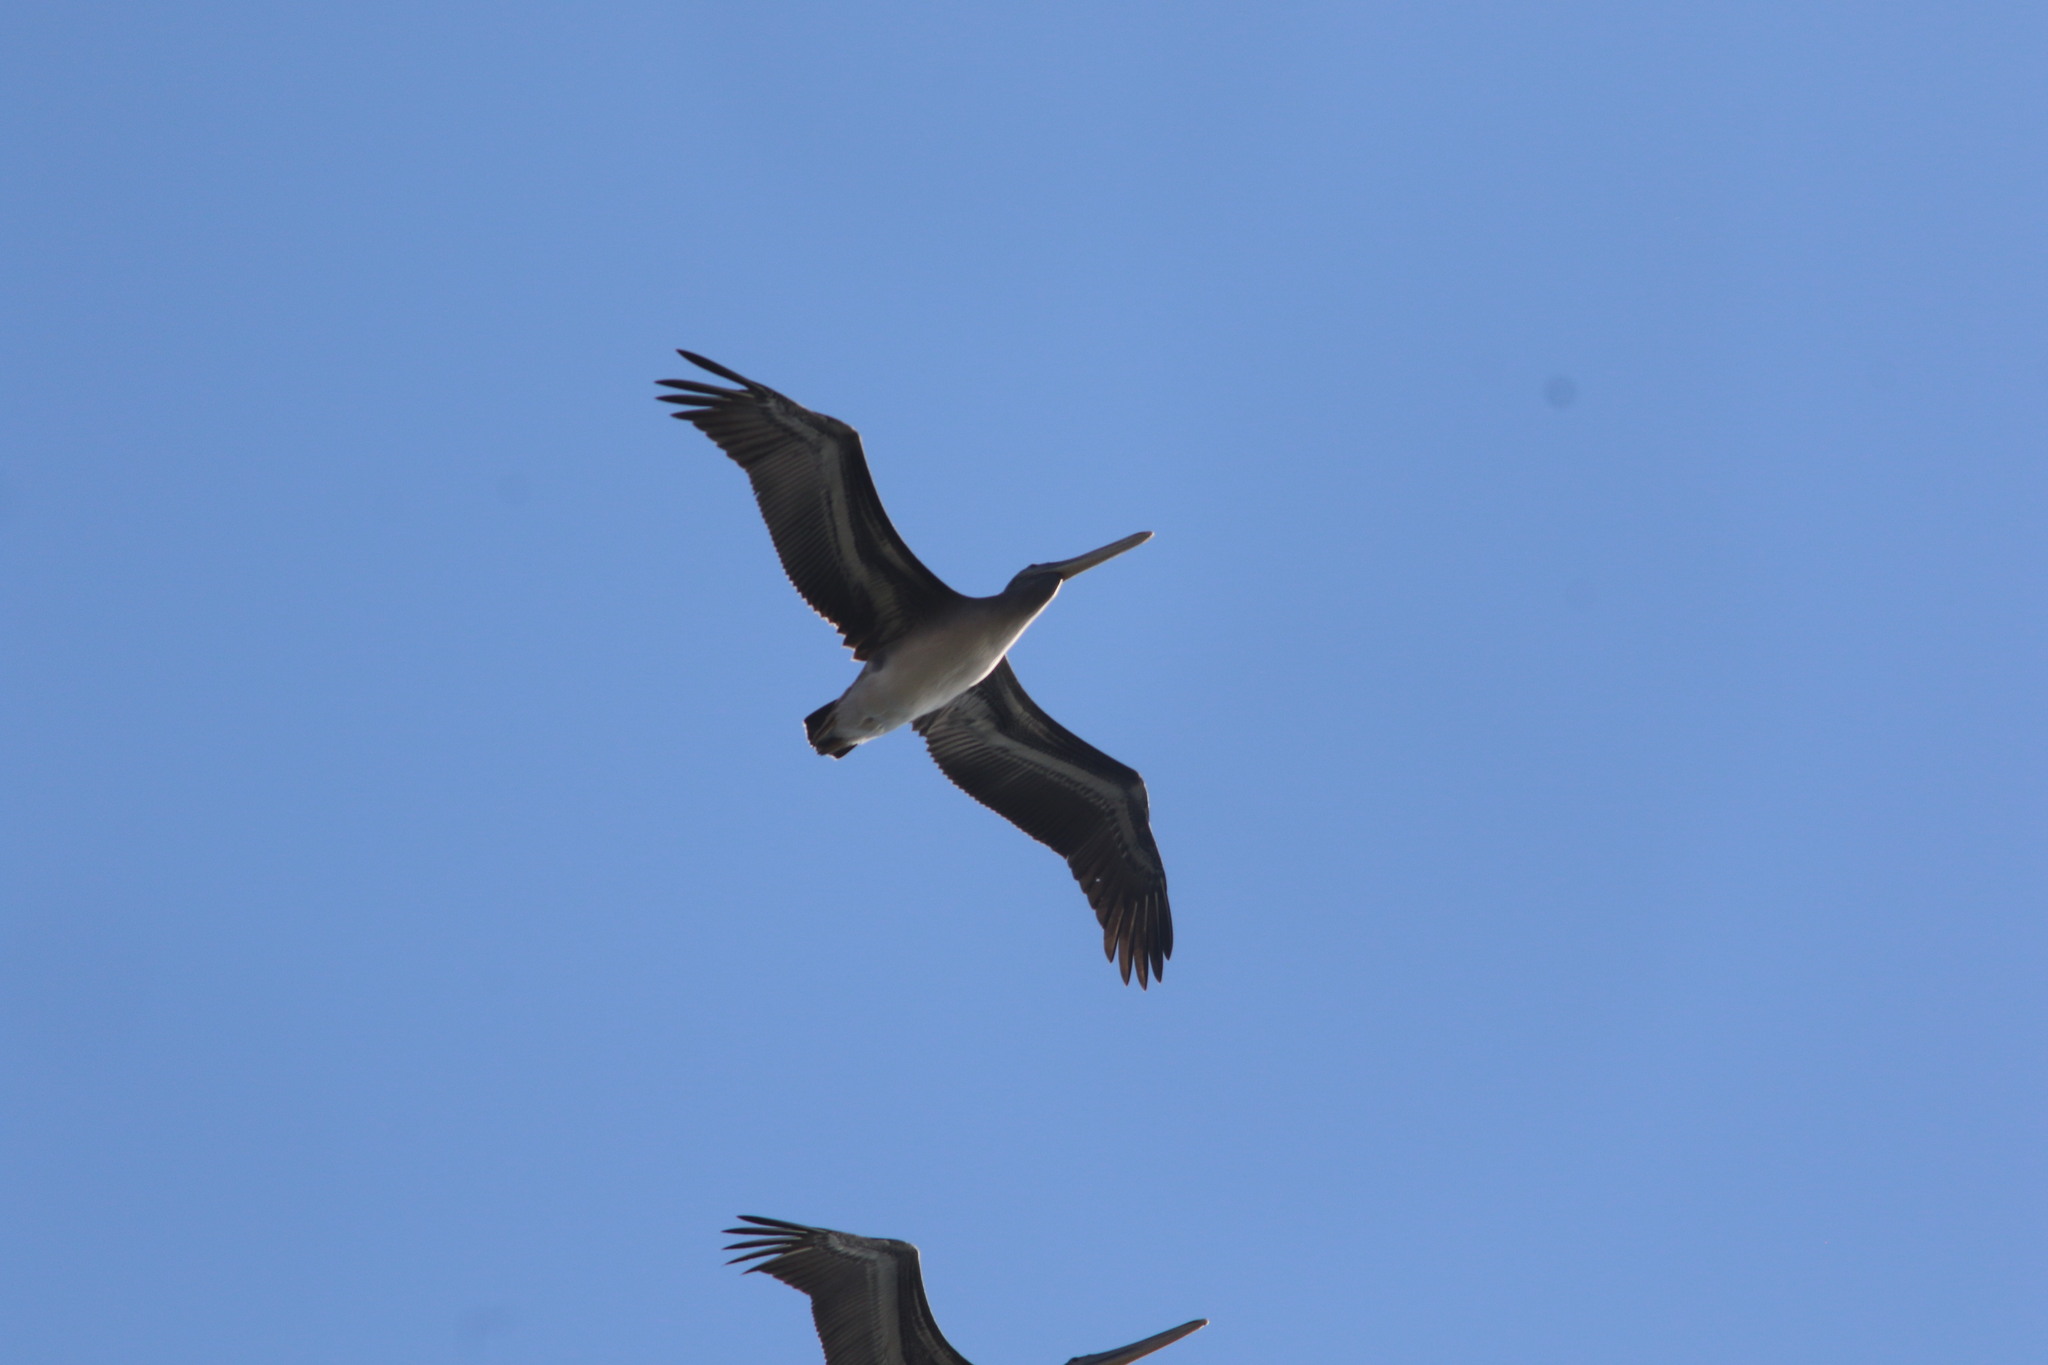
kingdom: Animalia
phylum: Chordata
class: Aves
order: Pelecaniformes
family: Pelecanidae
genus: Pelecanus
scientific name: Pelecanus occidentalis
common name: Brown pelican
